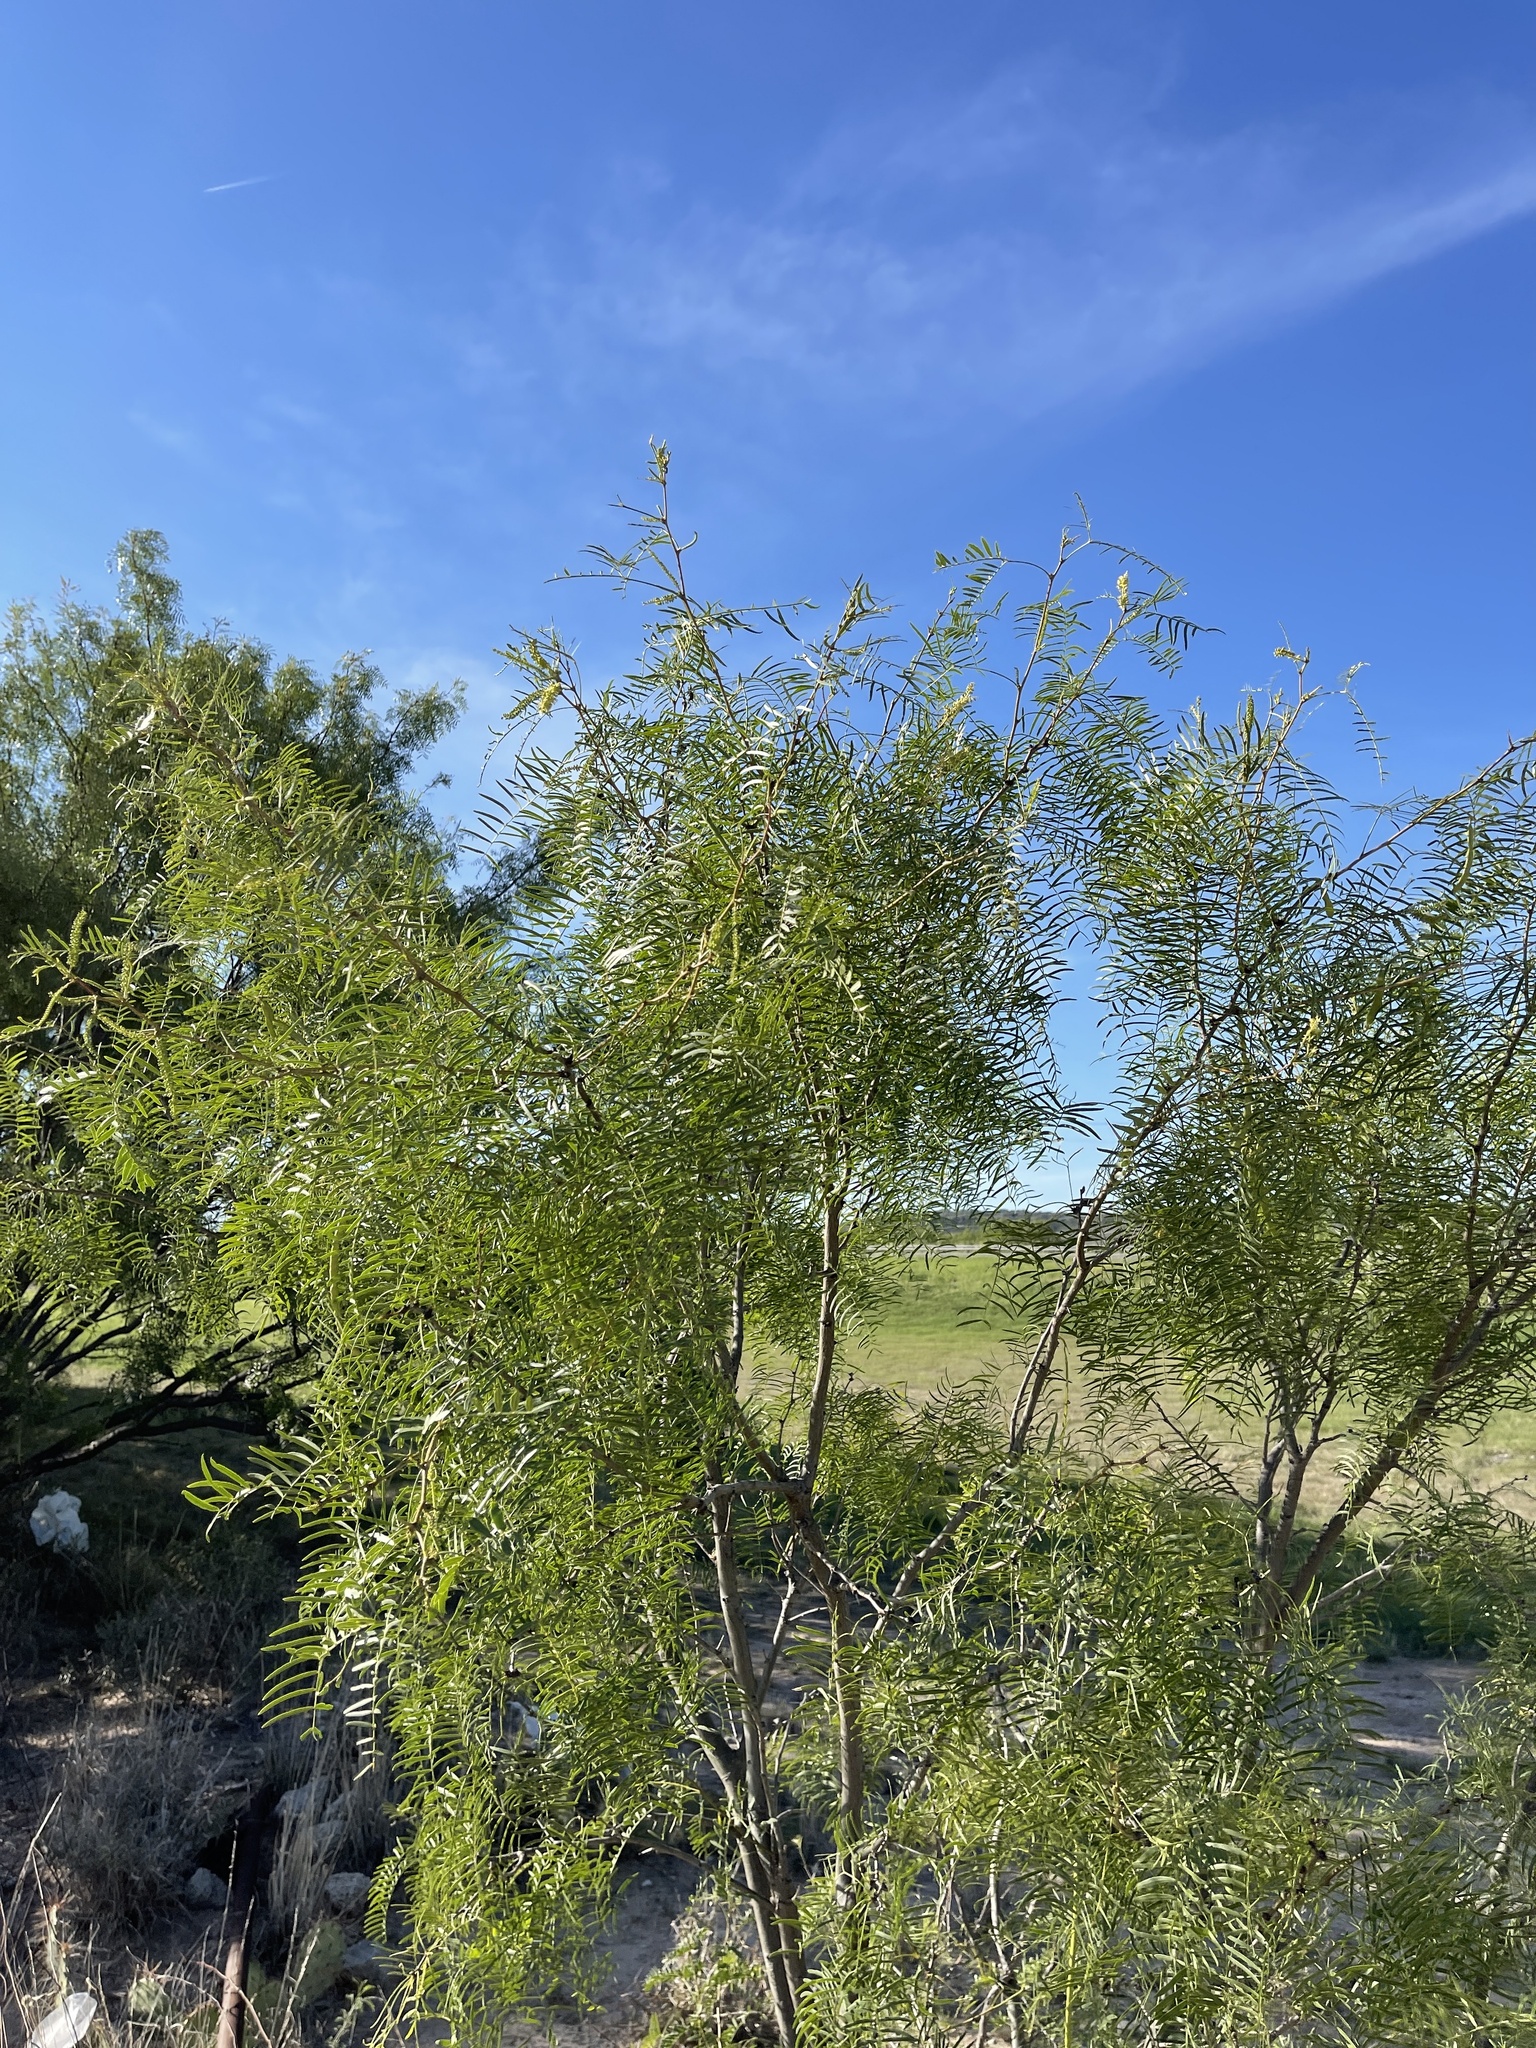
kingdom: Plantae
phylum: Tracheophyta
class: Magnoliopsida
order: Fabales
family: Fabaceae
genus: Prosopis
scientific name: Prosopis glandulosa
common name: Honey mesquite
